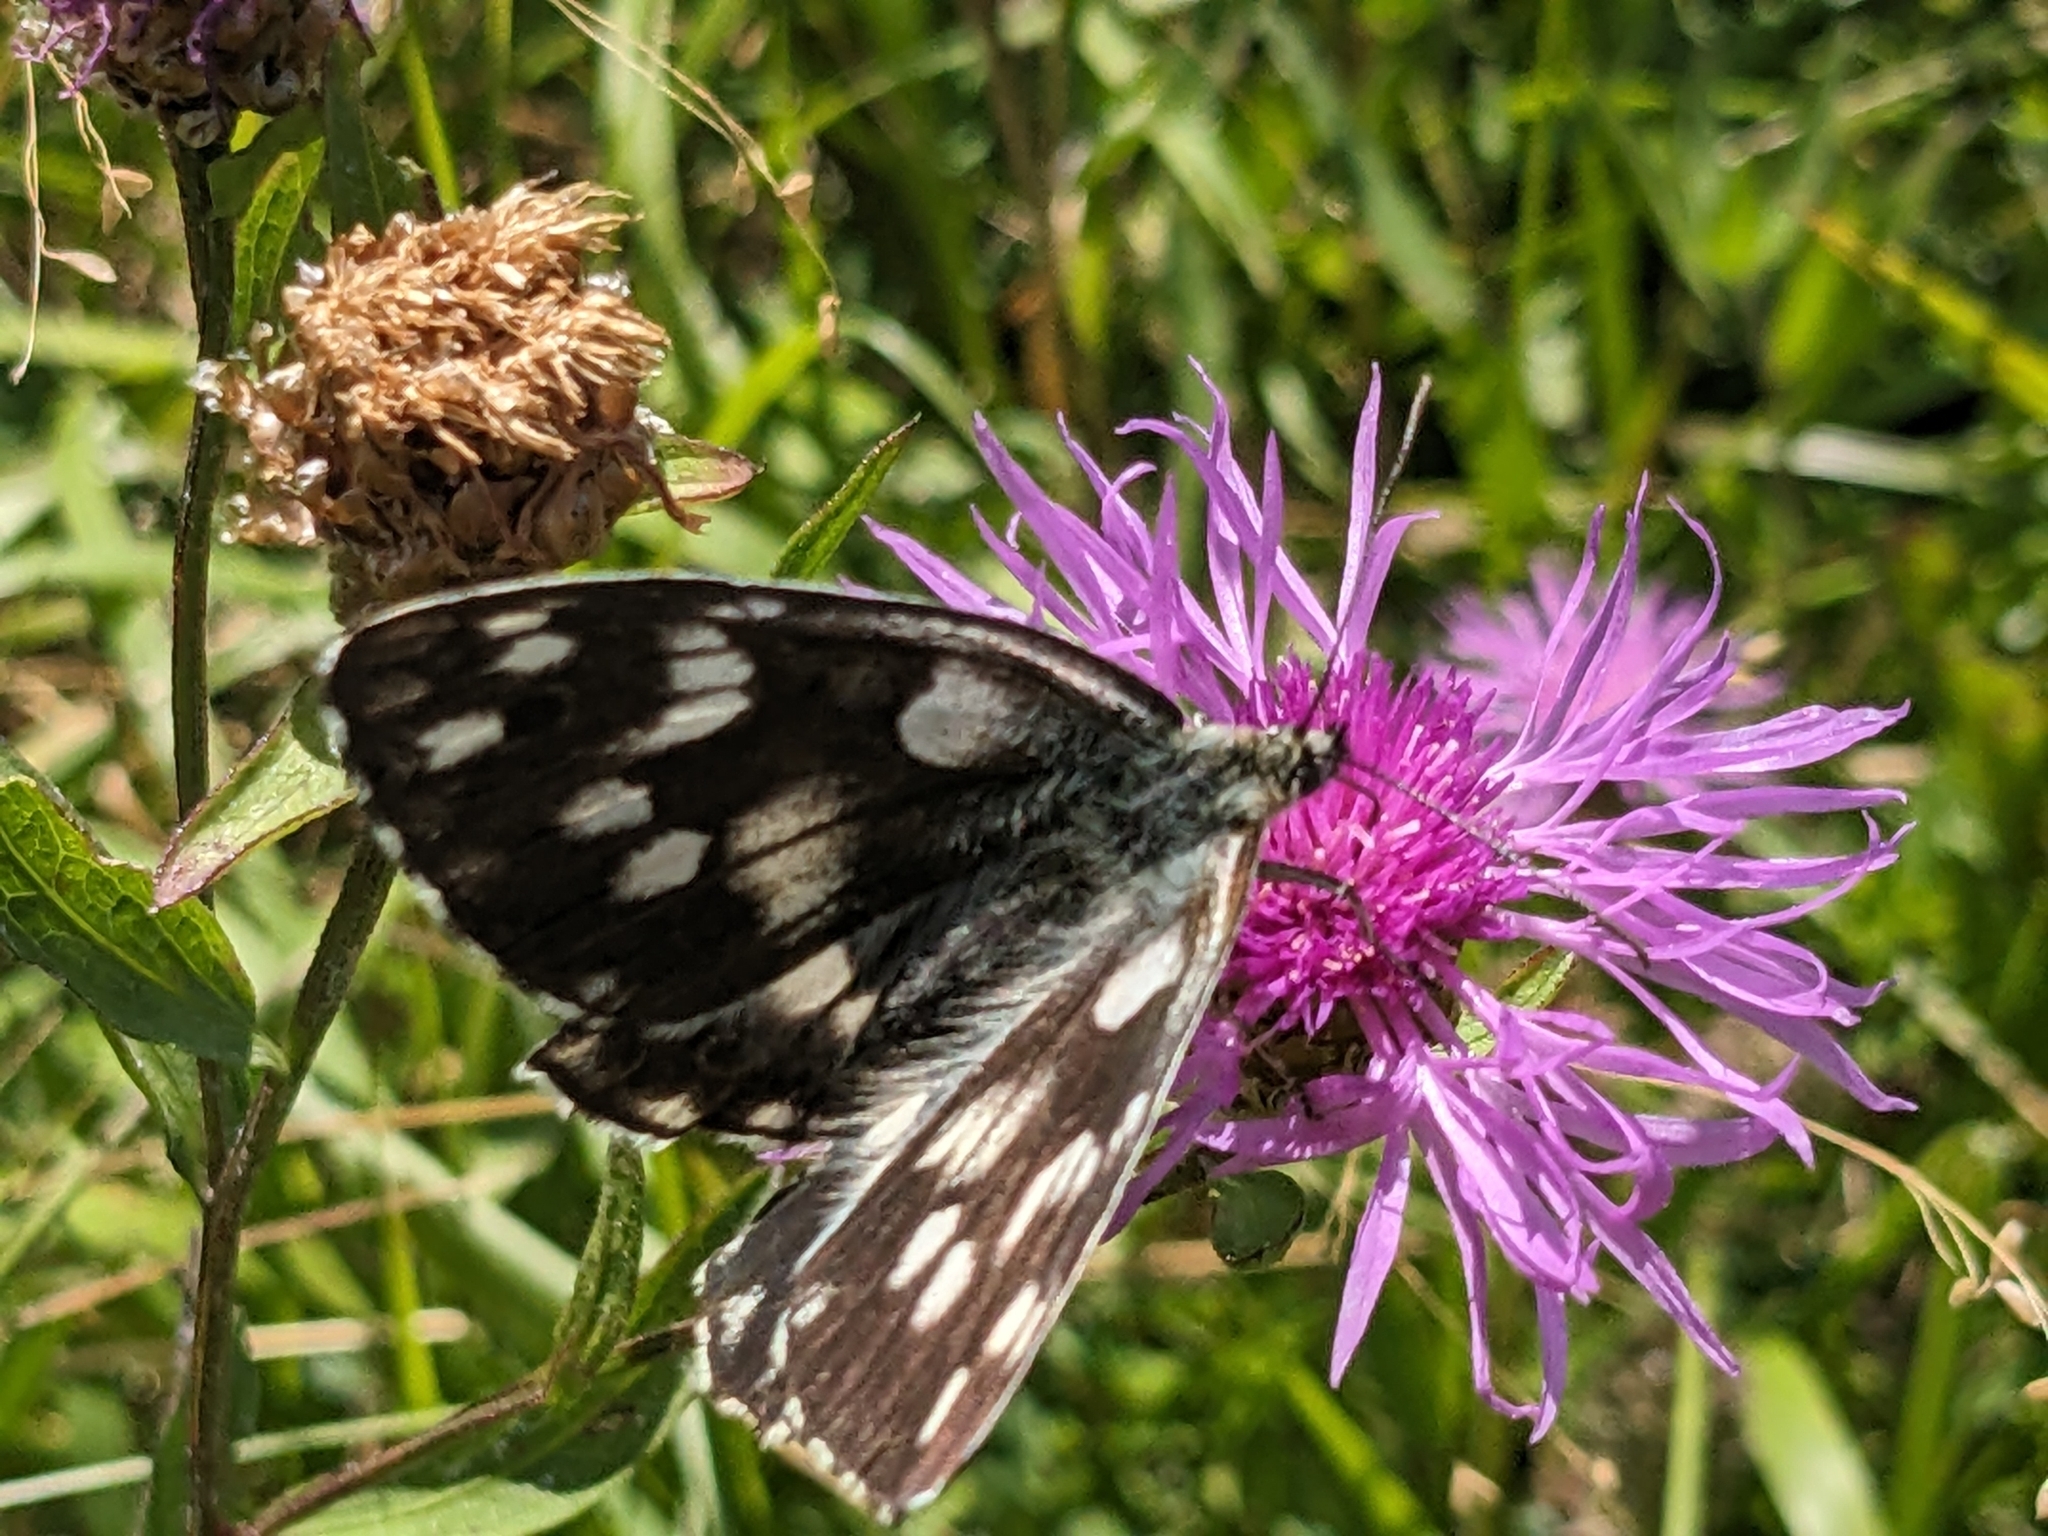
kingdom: Animalia
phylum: Arthropoda
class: Insecta
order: Lepidoptera
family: Nymphalidae
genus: Melanargia
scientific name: Melanargia galathea
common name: Marbled white
